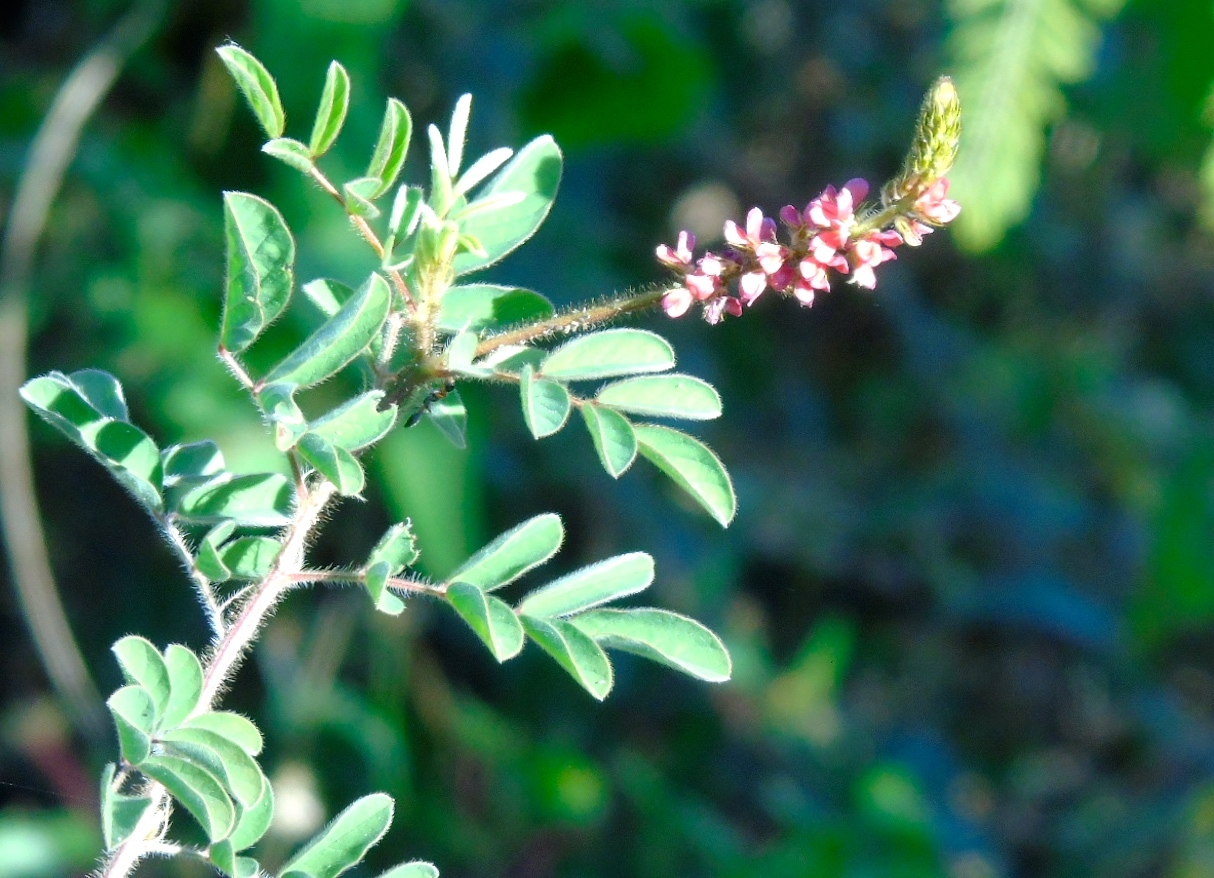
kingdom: Plantae
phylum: Tracheophyta
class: Magnoliopsida
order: Fabales
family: Fabaceae
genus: Indigofera
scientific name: Indigofera
